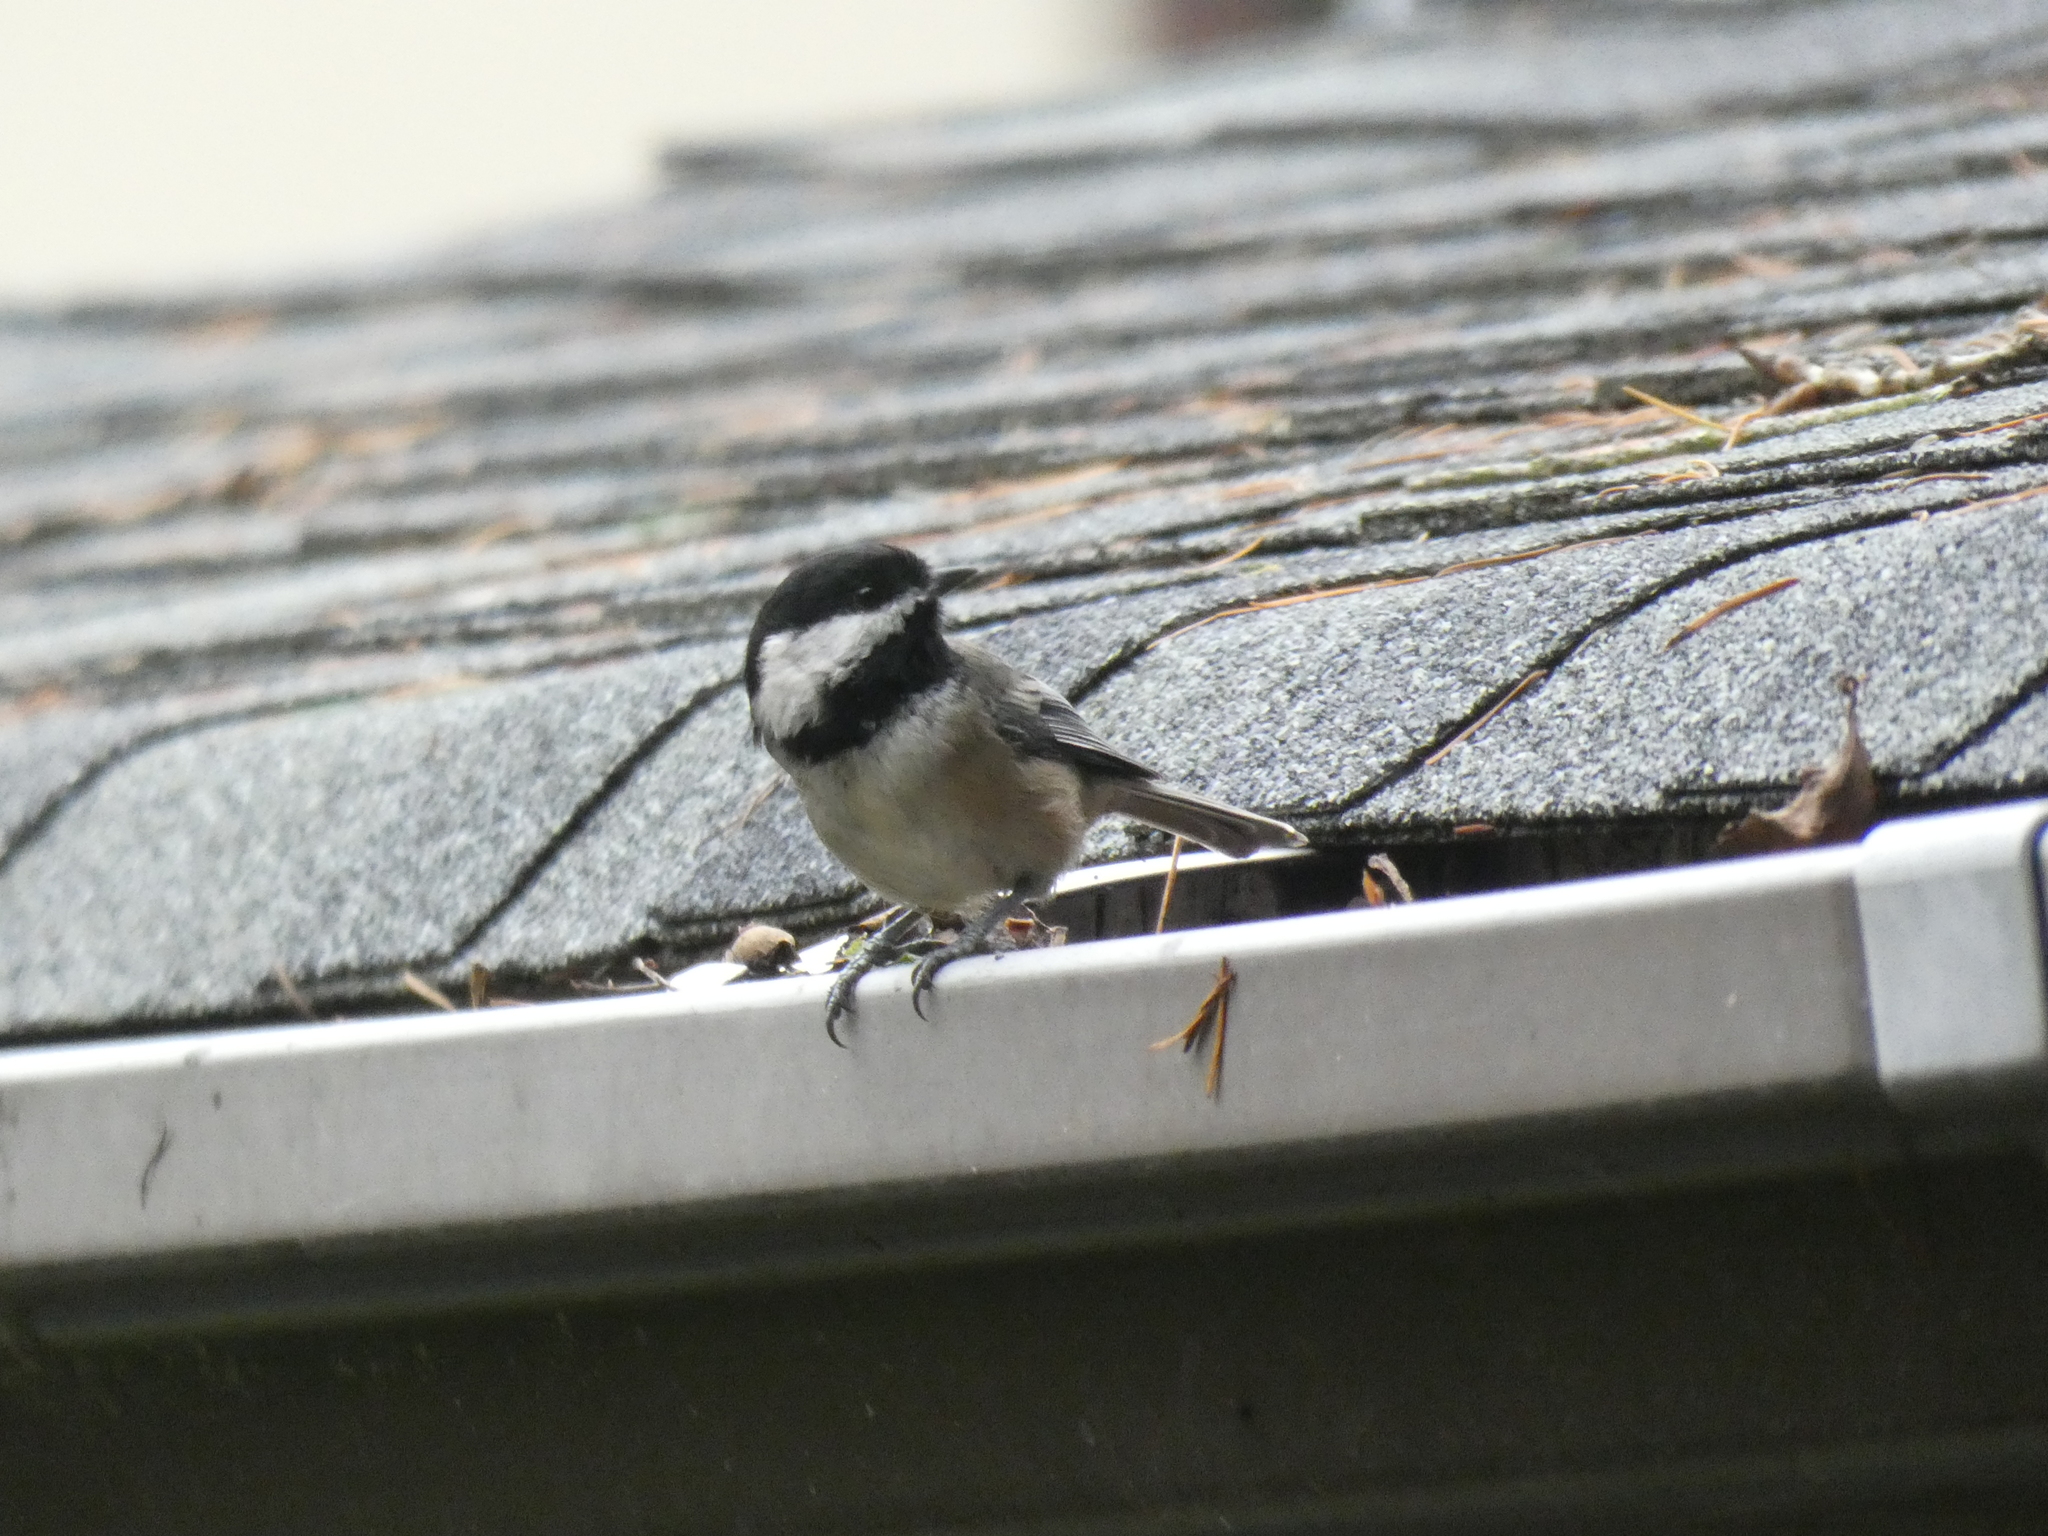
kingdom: Animalia
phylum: Chordata
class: Aves
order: Passeriformes
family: Paridae
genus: Poecile
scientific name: Poecile atricapillus
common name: Black-capped chickadee
